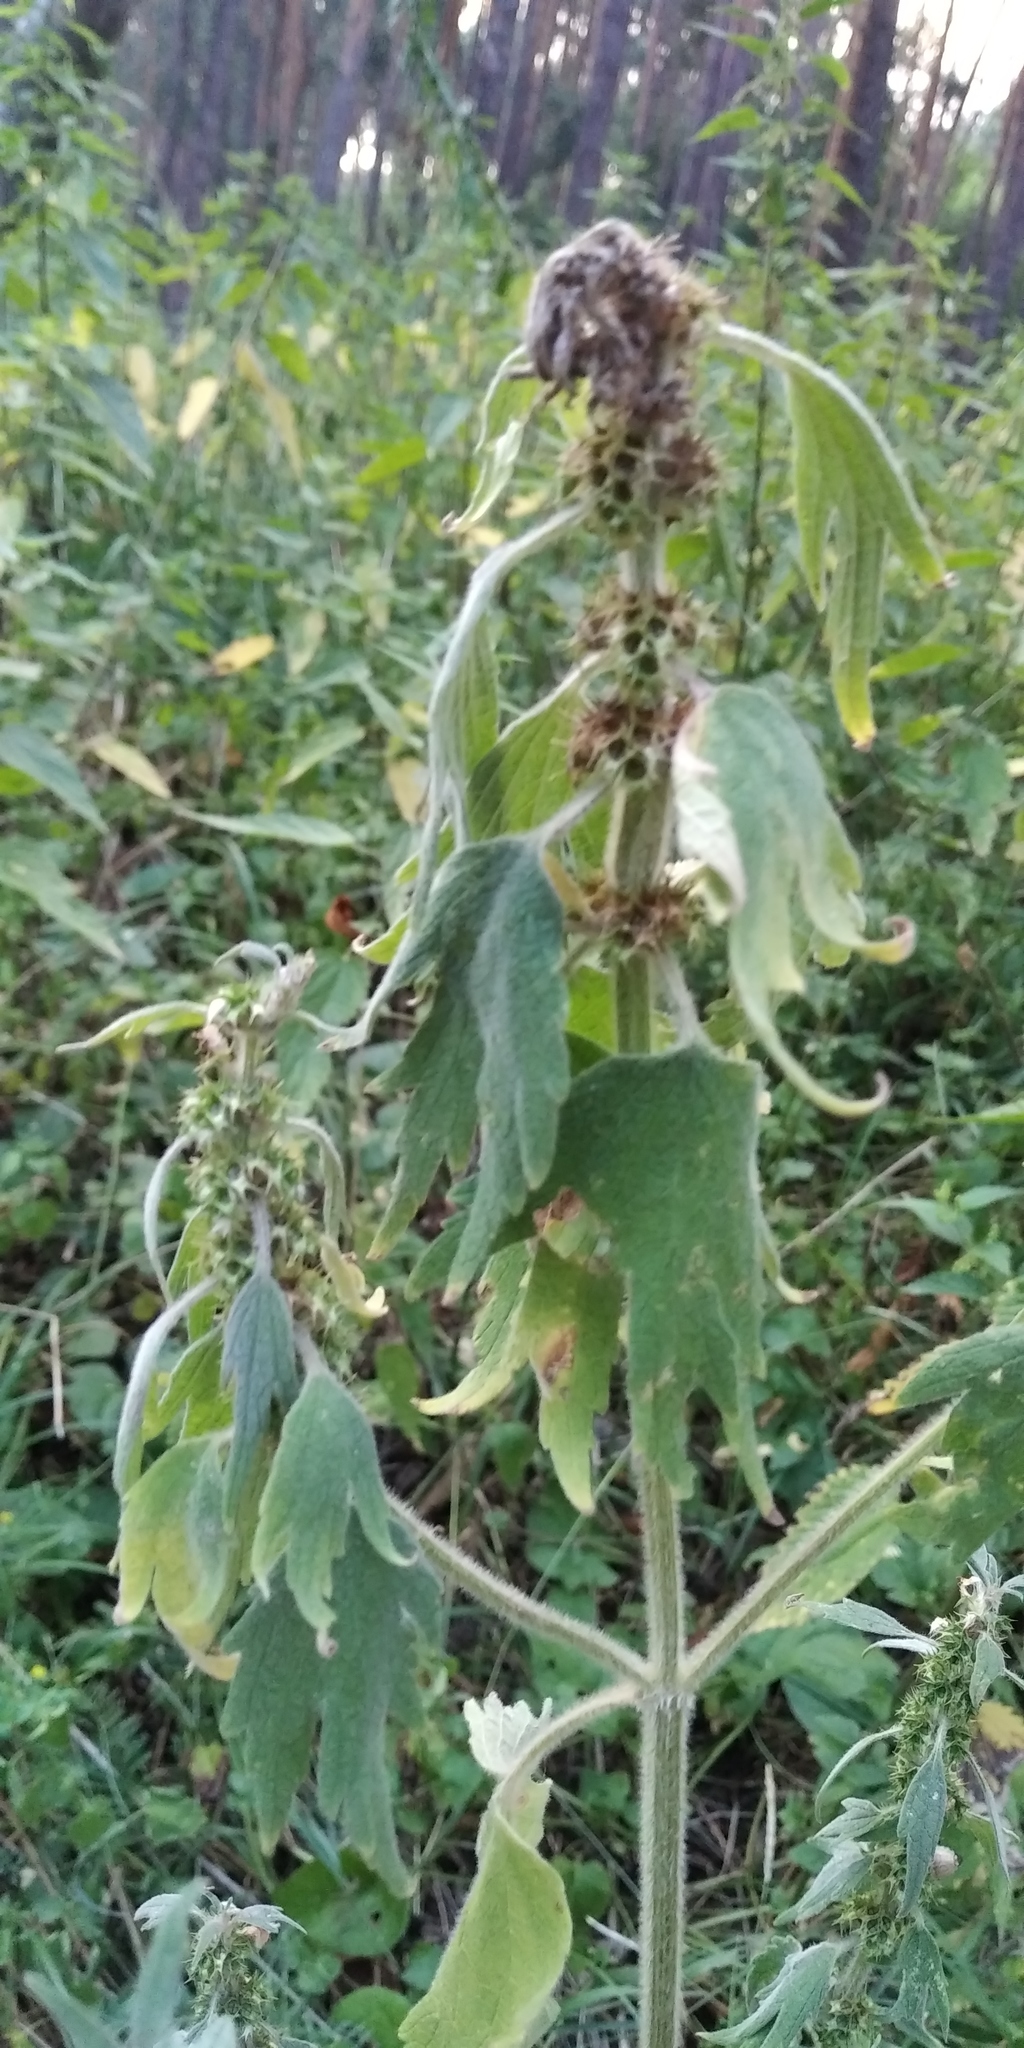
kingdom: Plantae
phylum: Tracheophyta
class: Magnoliopsida
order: Lamiales
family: Lamiaceae
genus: Leonurus
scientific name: Leonurus quinquelobatus
